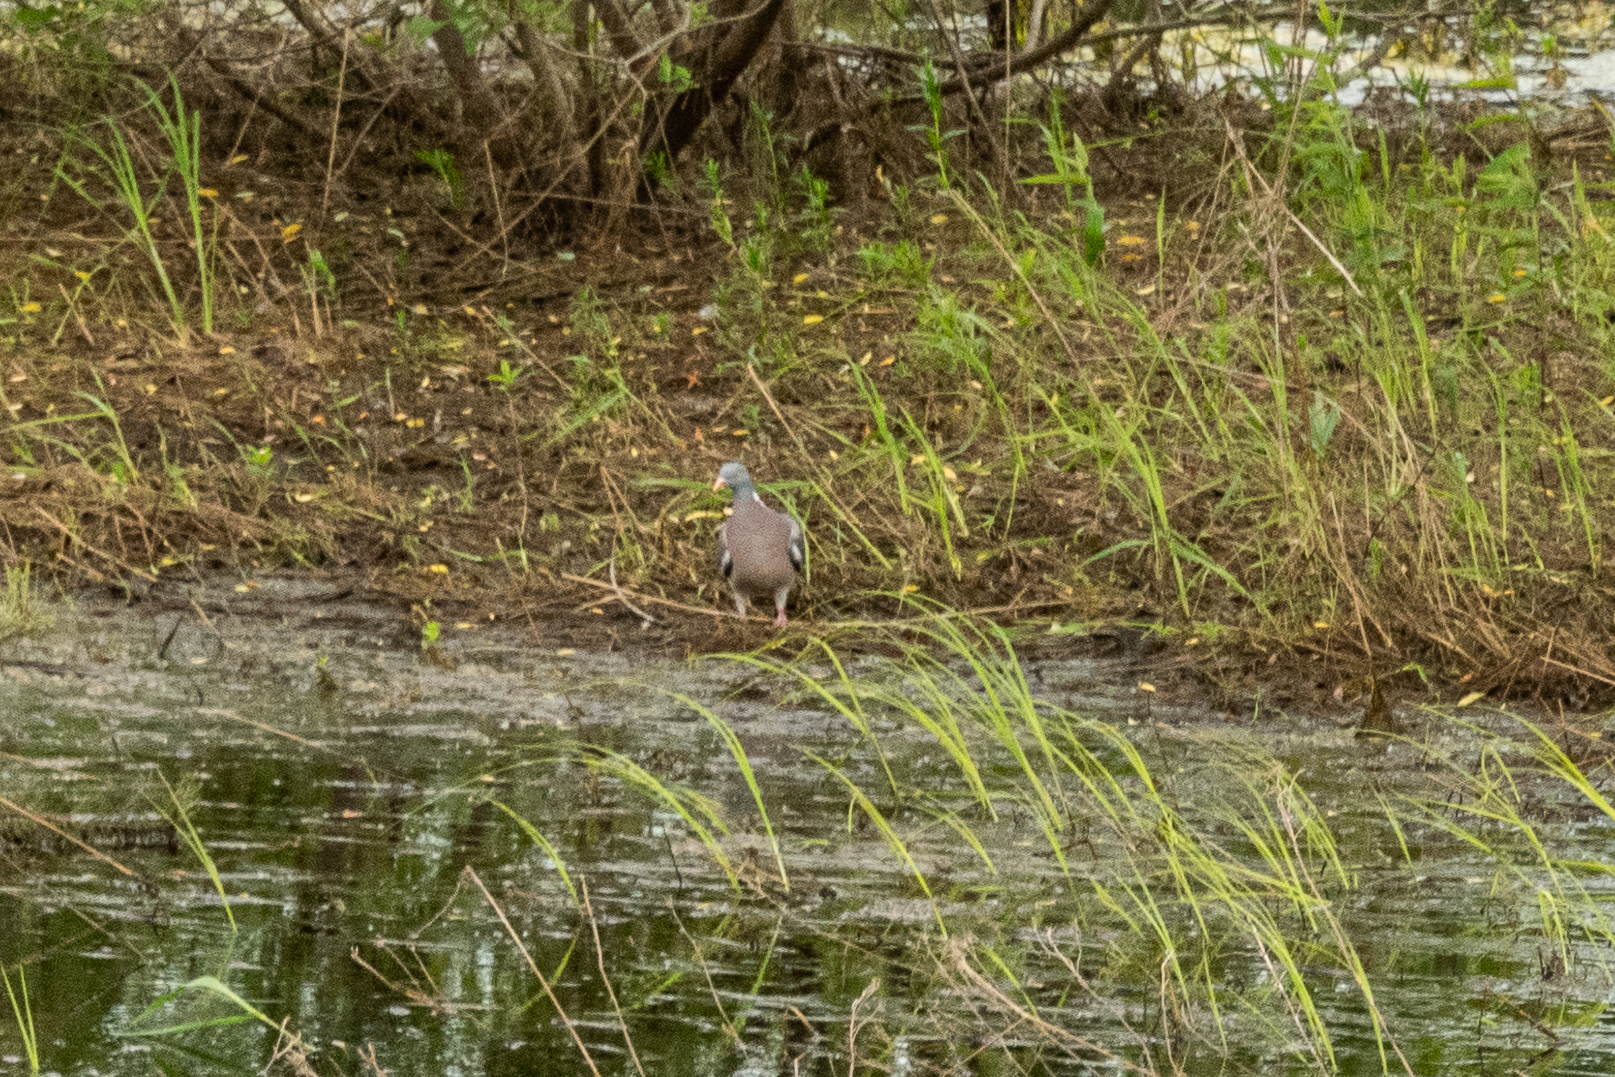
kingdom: Animalia
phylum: Chordata
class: Aves
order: Columbiformes
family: Columbidae
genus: Columba
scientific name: Columba palumbus
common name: Common wood pigeon
